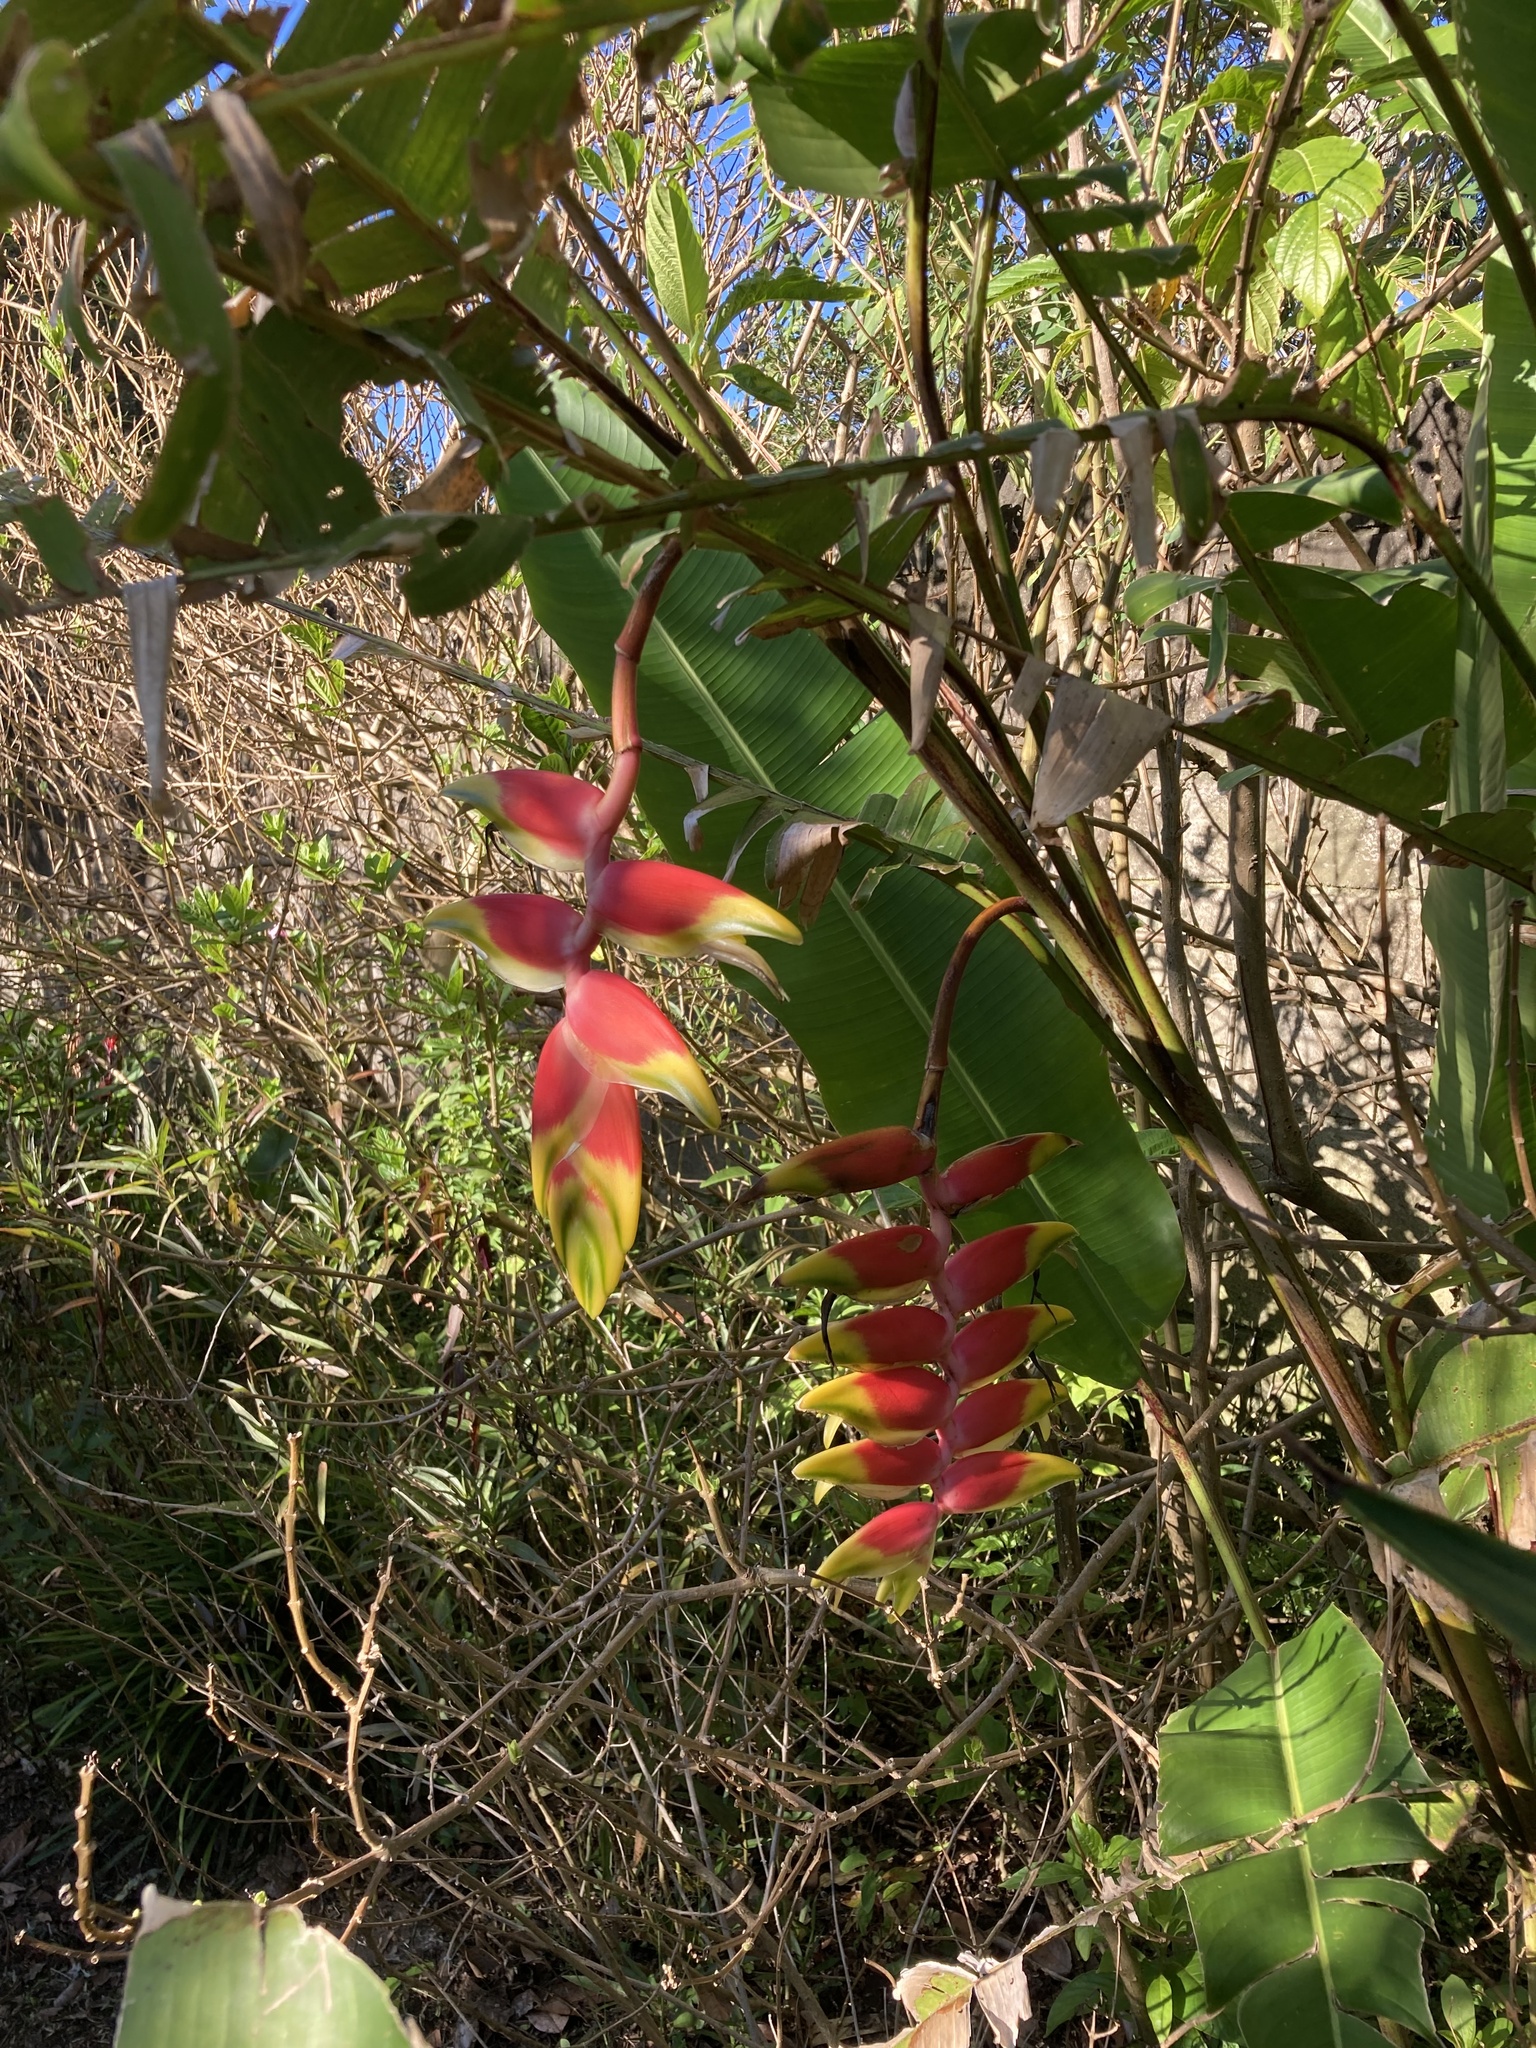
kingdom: Plantae
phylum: Tracheophyta
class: Liliopsida
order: Zingiberales
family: Heliconiaceae
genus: Heliconia
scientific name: Heliconia rostrata
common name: False bird of paradise
